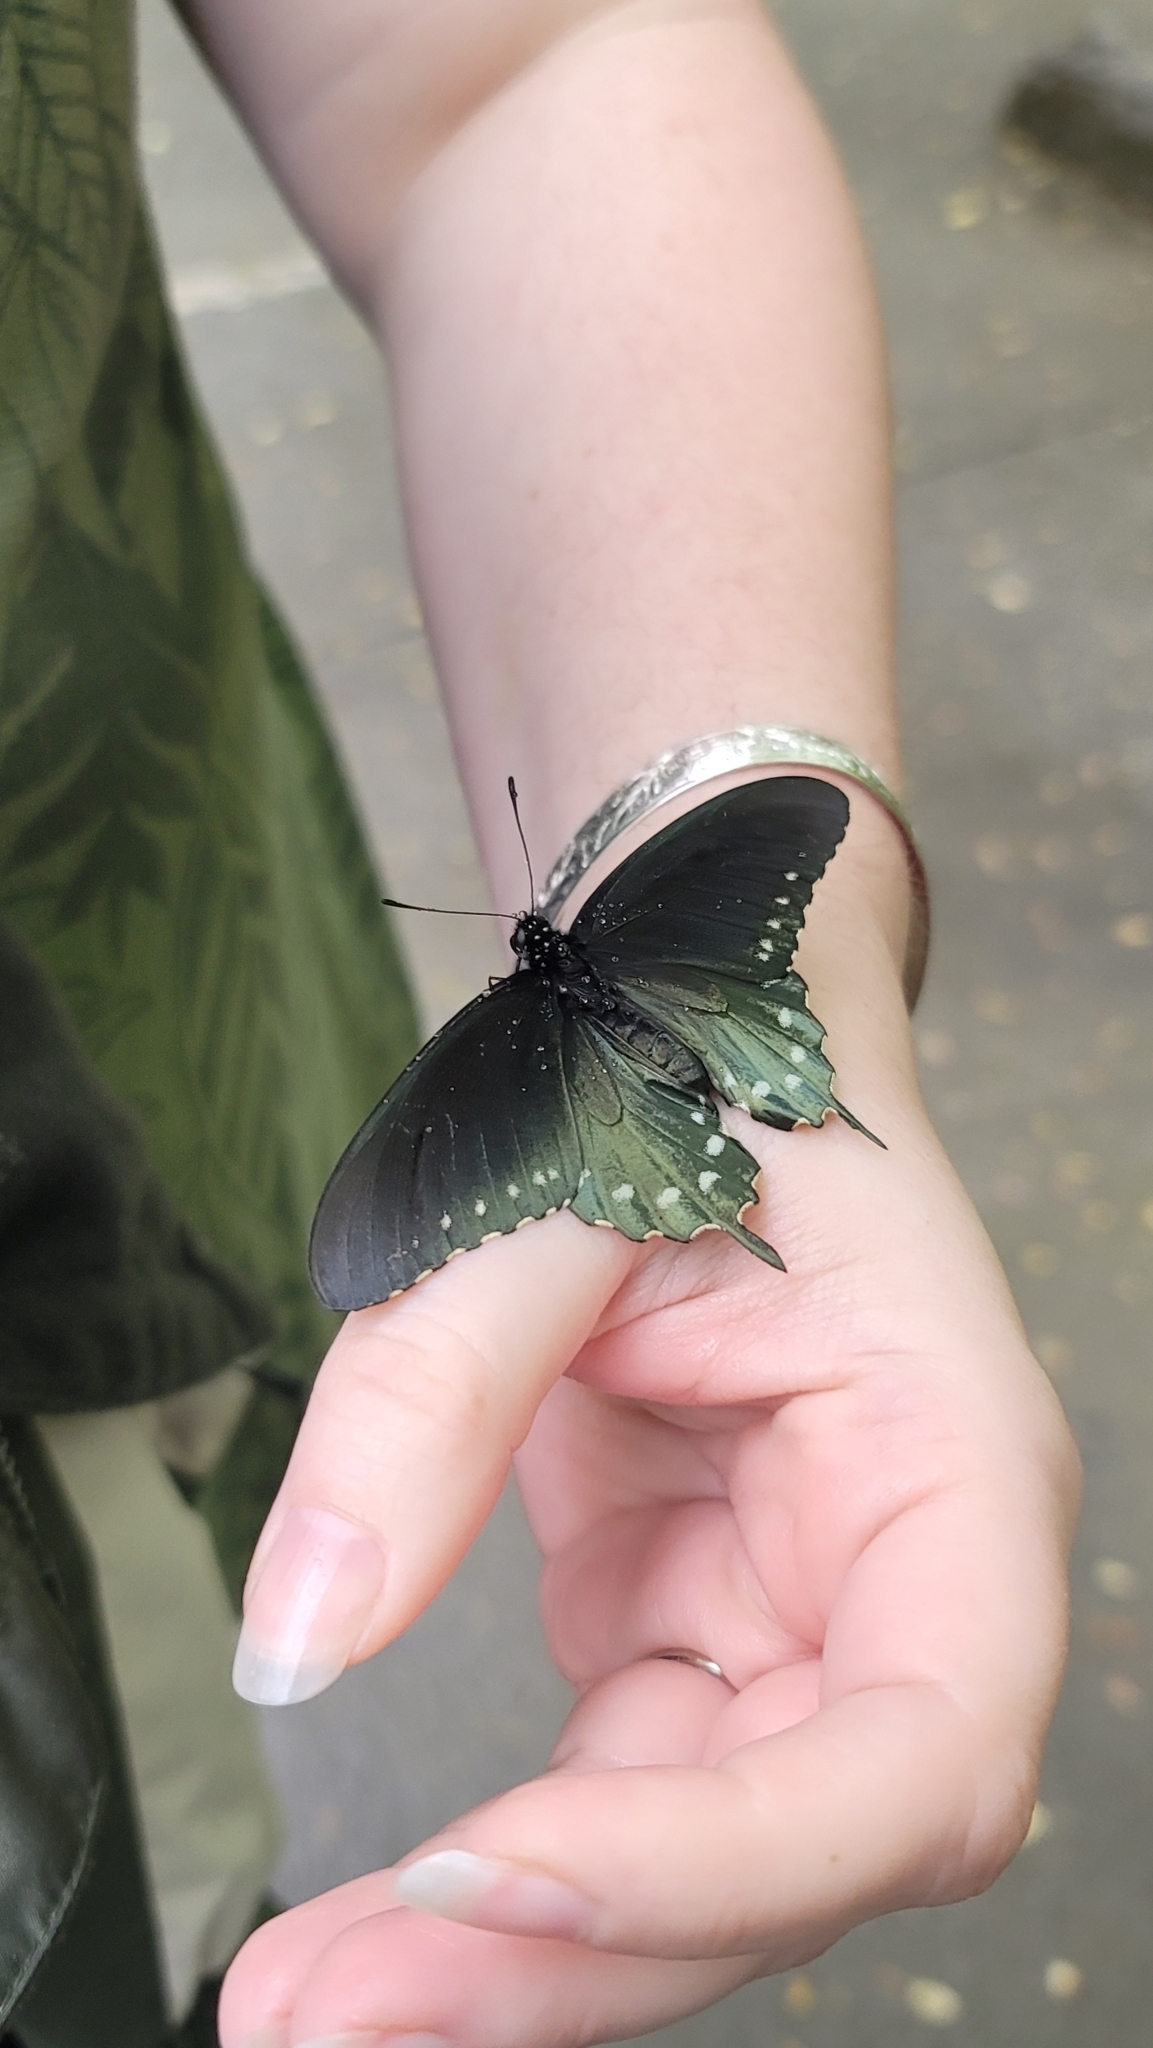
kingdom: Animalia
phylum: Arthropoda
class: Insecta
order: Lepidoptera
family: Papilionidae
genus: Battus
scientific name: Battus philenor
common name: Pipevine swallowtail
